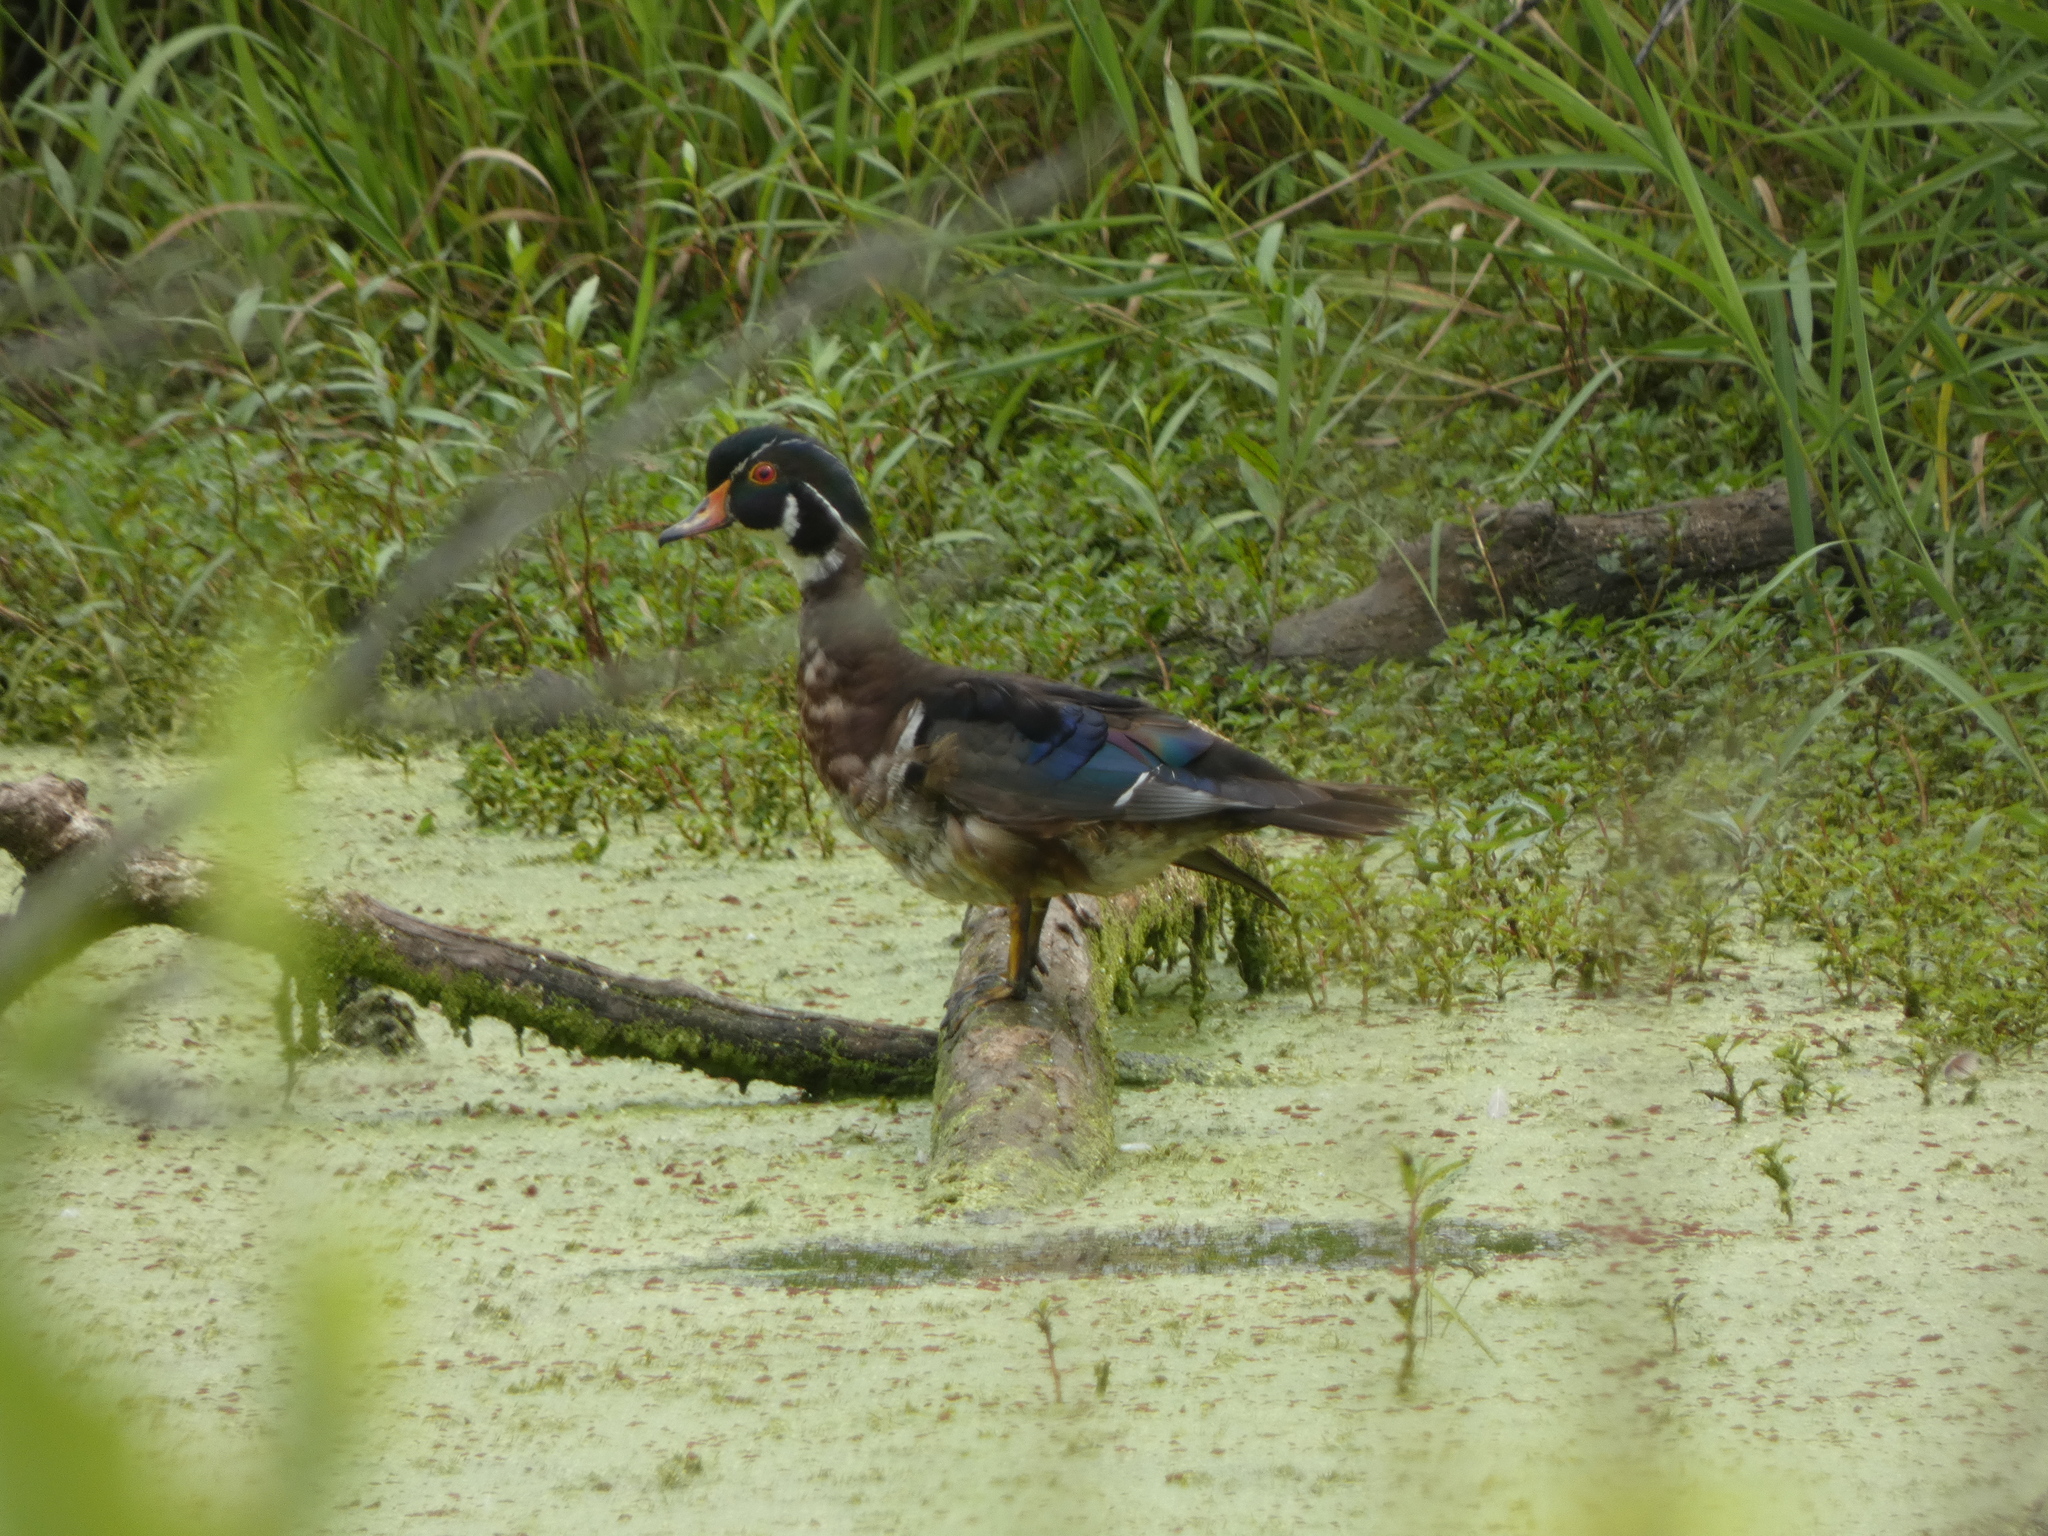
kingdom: Animalia
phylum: Chordata
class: Aves
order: Anseriformes
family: Anatidae
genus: Aix
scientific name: Aix sponsa
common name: Wood duck
